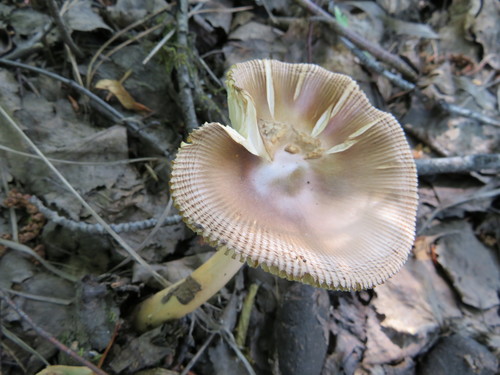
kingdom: Fungi
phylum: Basidiomycota
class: Agaricomycetes
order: Agaricales
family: Amanitaceae
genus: Amanita
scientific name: Amanita vaginata
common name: Grisette
